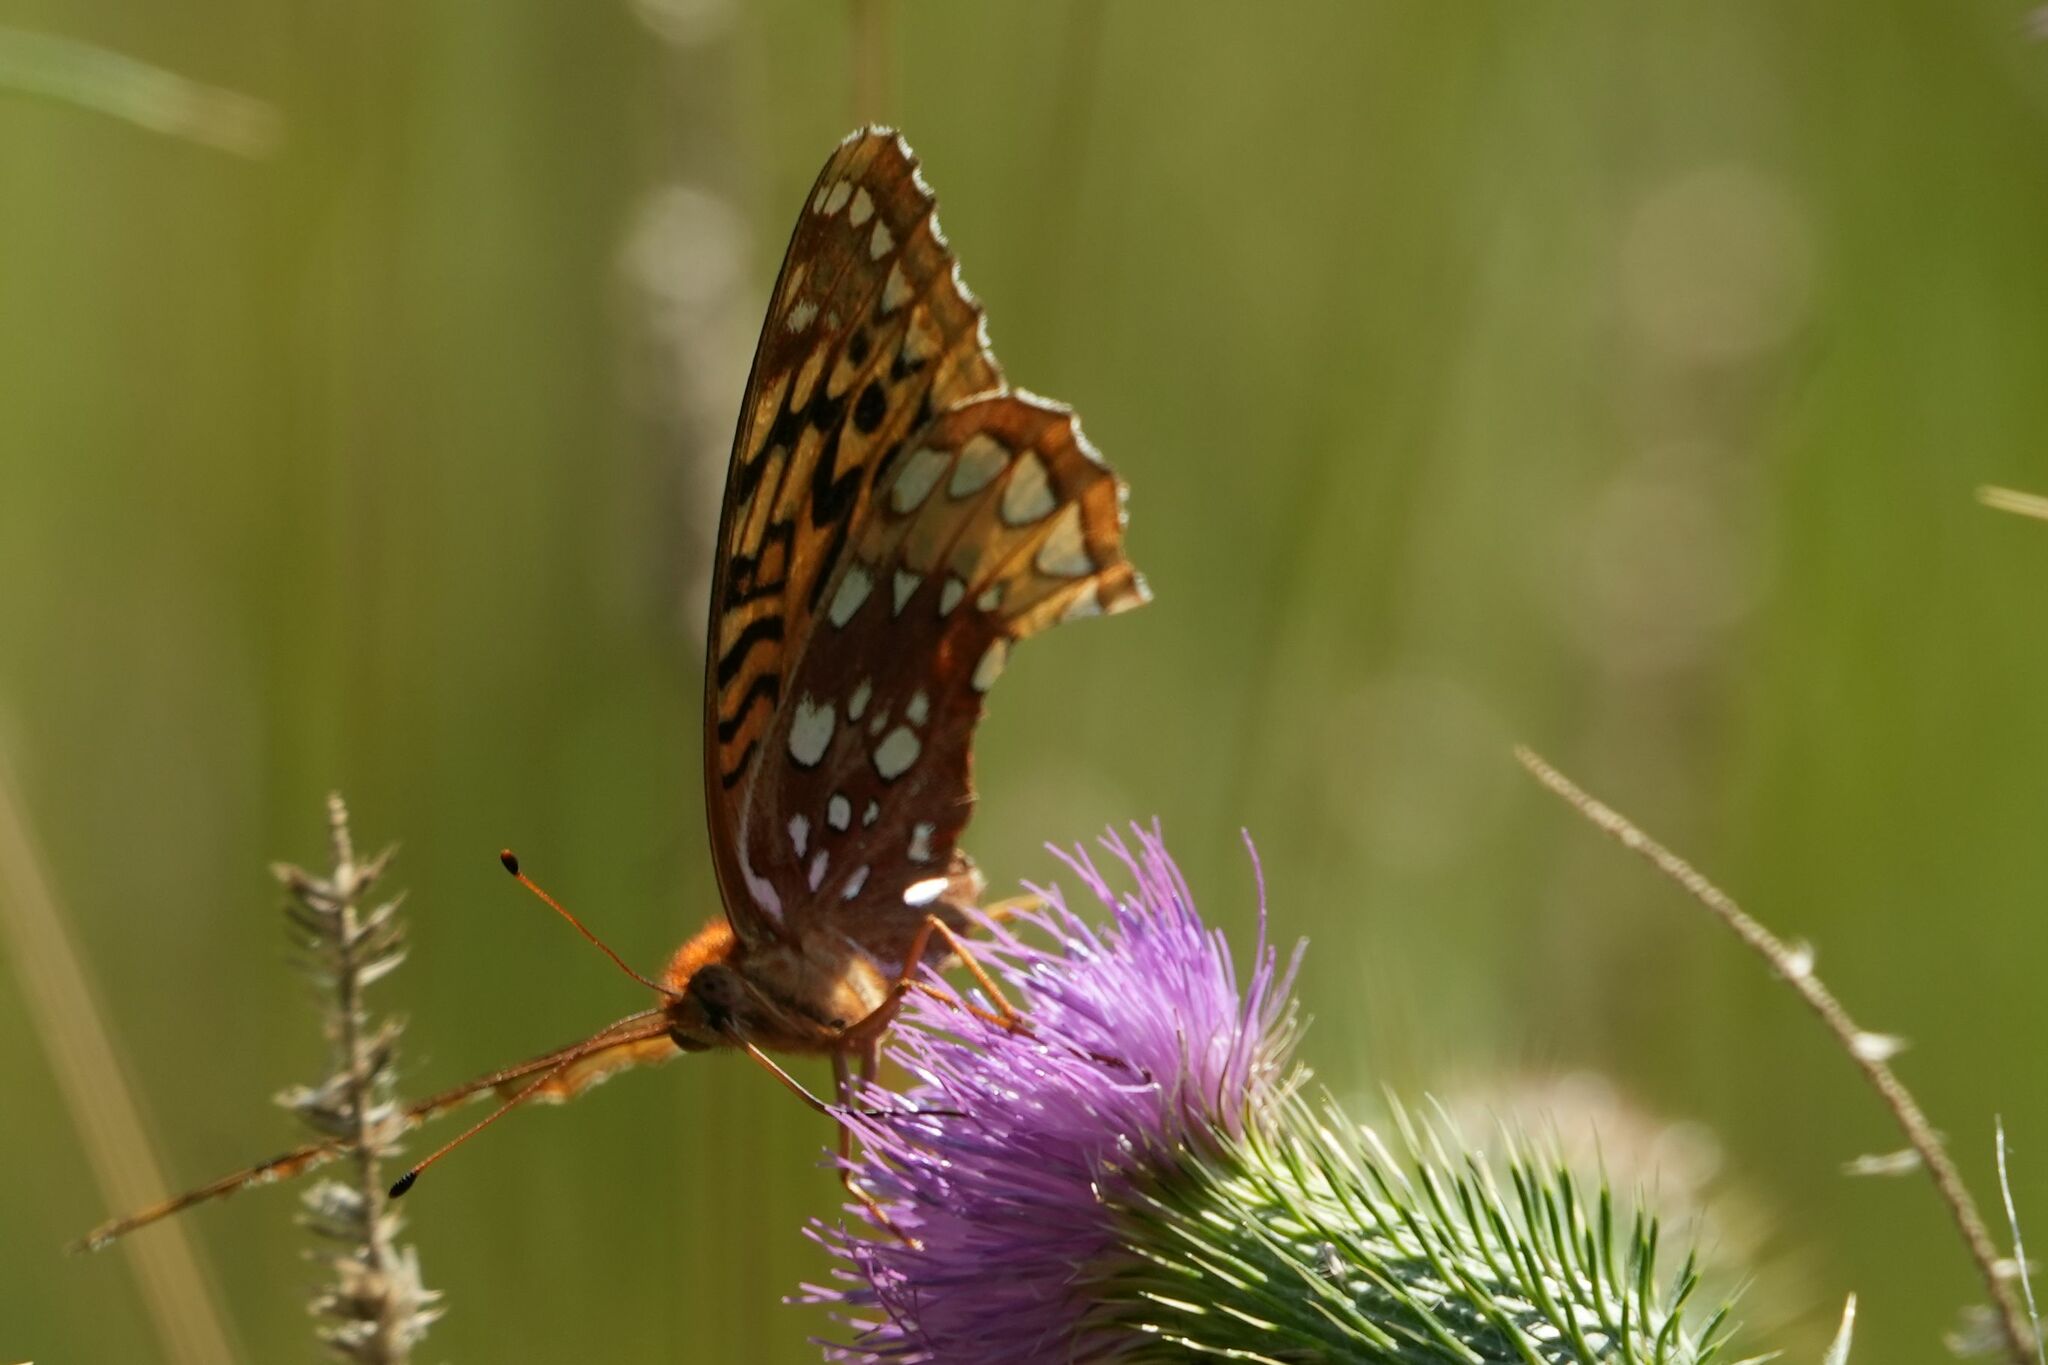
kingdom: Animalia
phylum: Arthropoda
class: Insecta
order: Lepidoptera
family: Nymphalidae
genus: Speyeria
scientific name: Speyeria cybele
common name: Great spangled fritillary
